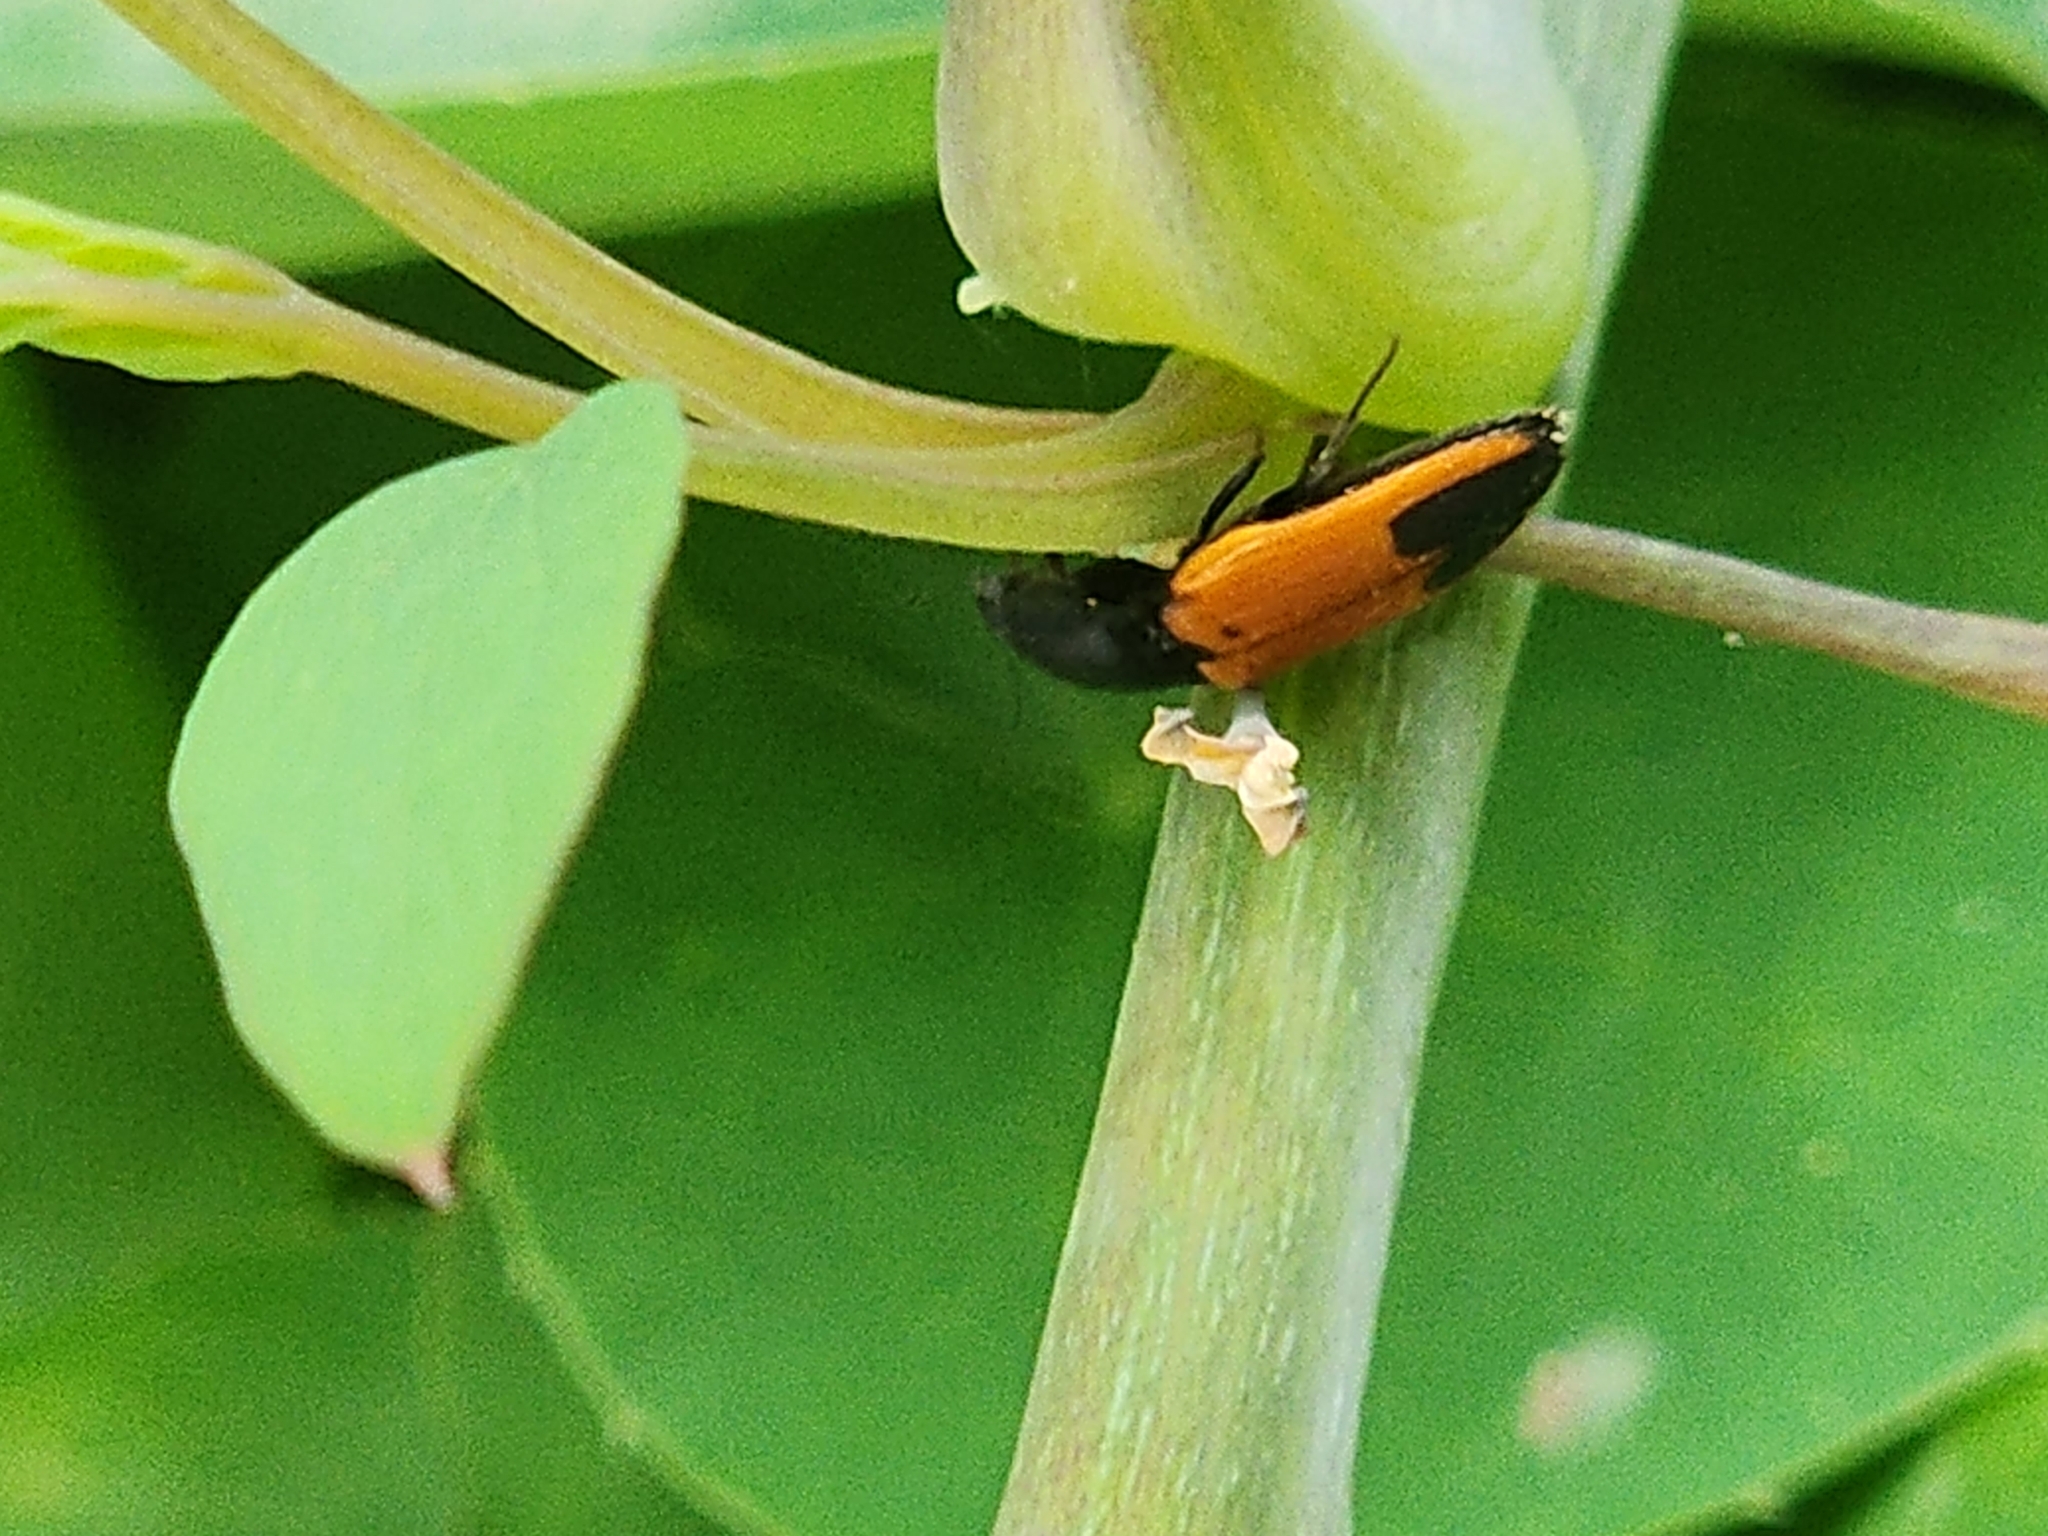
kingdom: Animalia
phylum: Arthropoda
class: Insecta
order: Coleoptera
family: Elateridae
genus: Ampedus
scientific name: Ampedus
